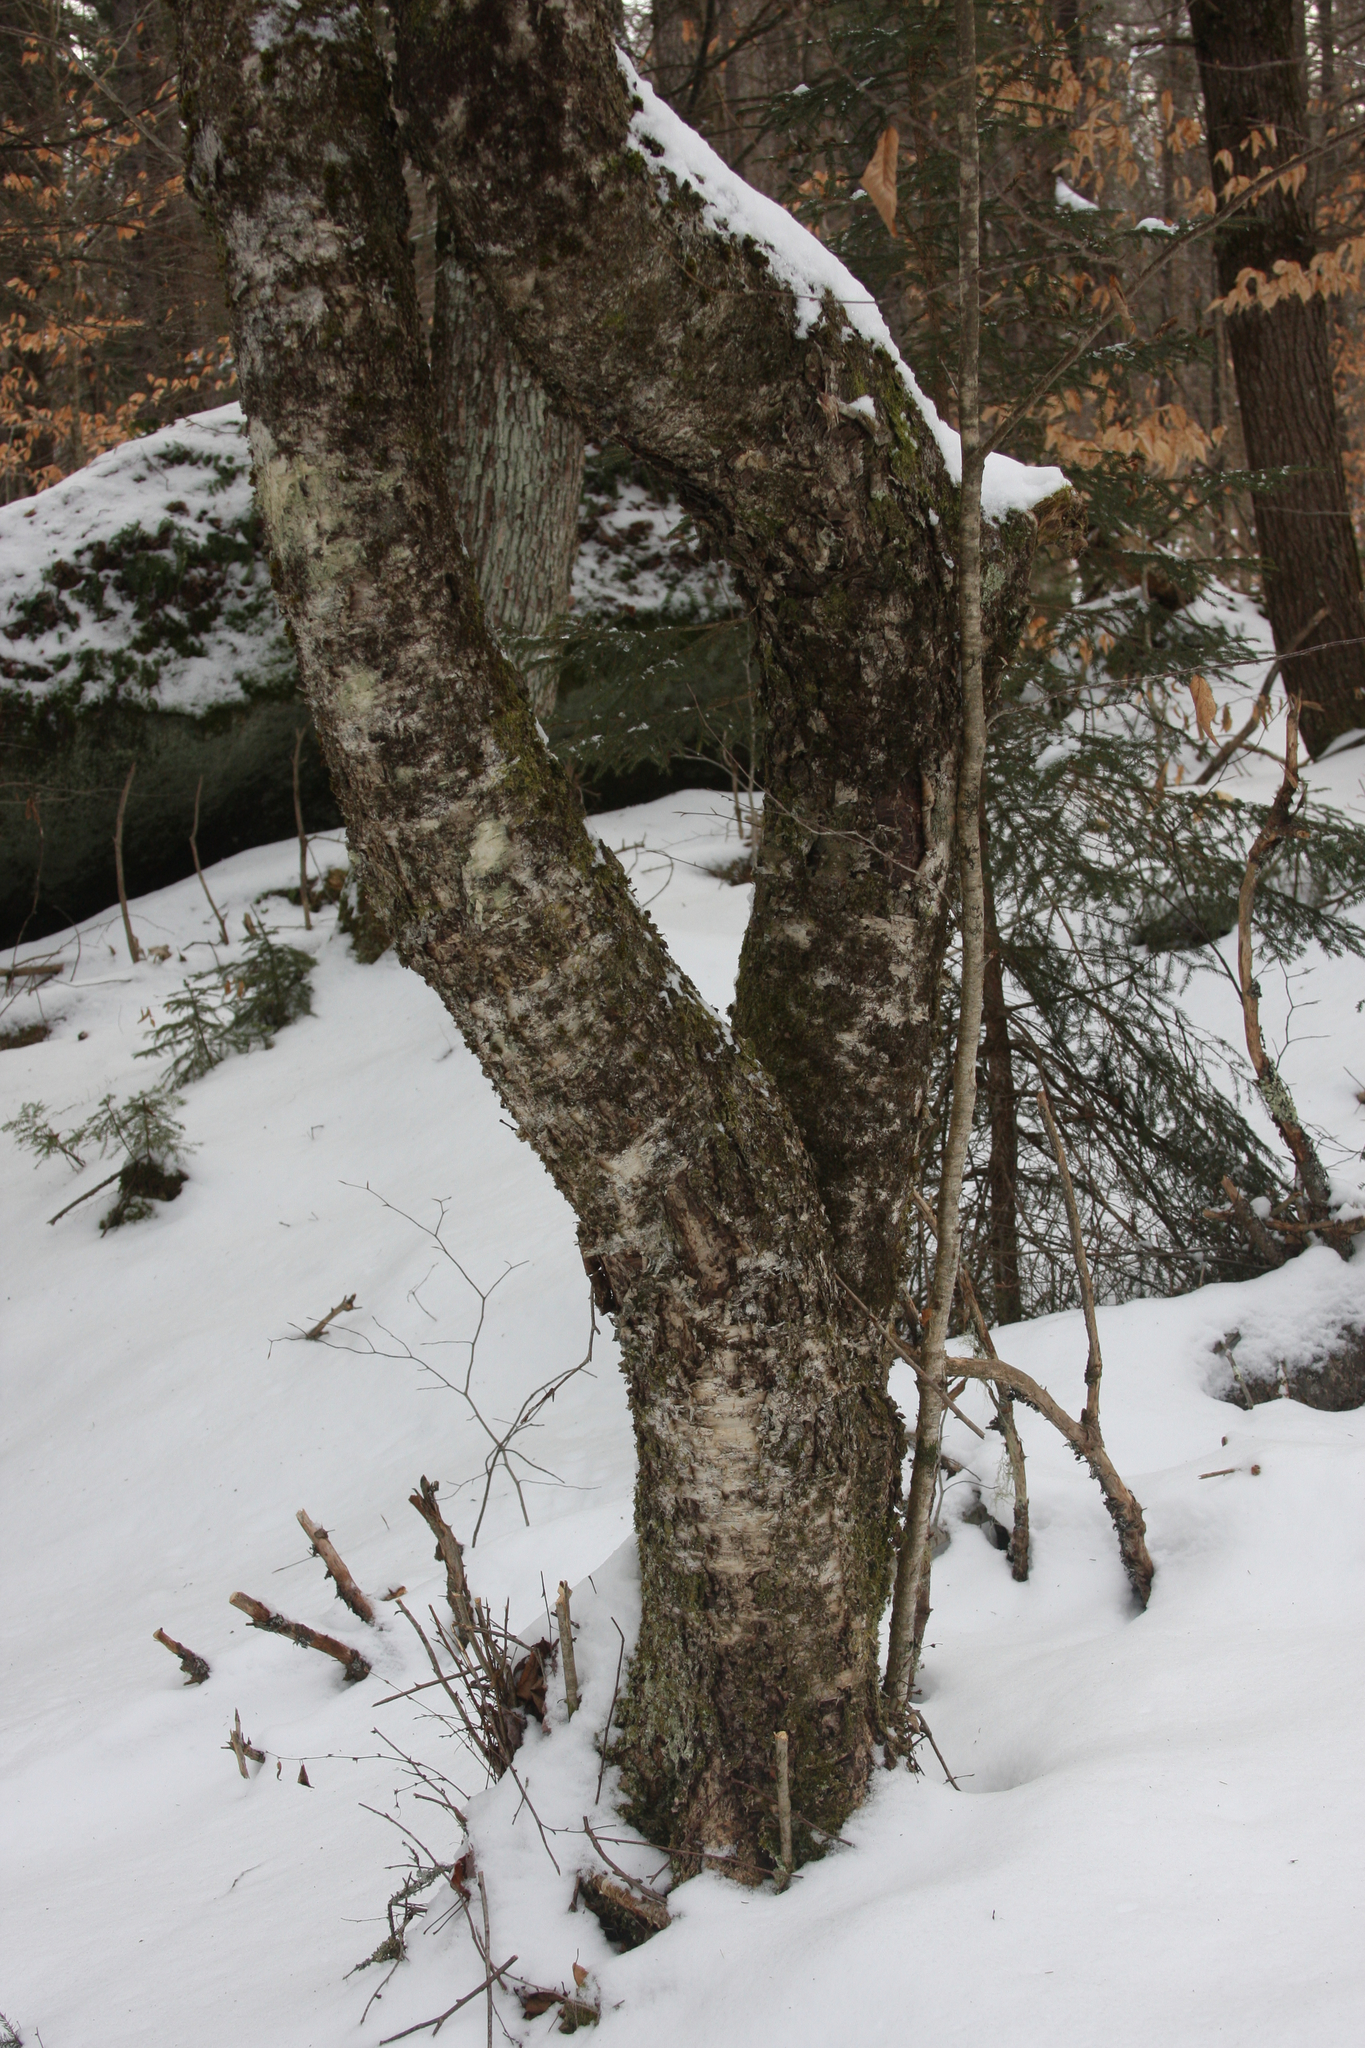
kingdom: Plantae
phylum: Tracheophyta
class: Magnoliopsida
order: Fagales
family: Betulaceae
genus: Betula
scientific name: Betula alleghaniensis
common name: Yellow birch
